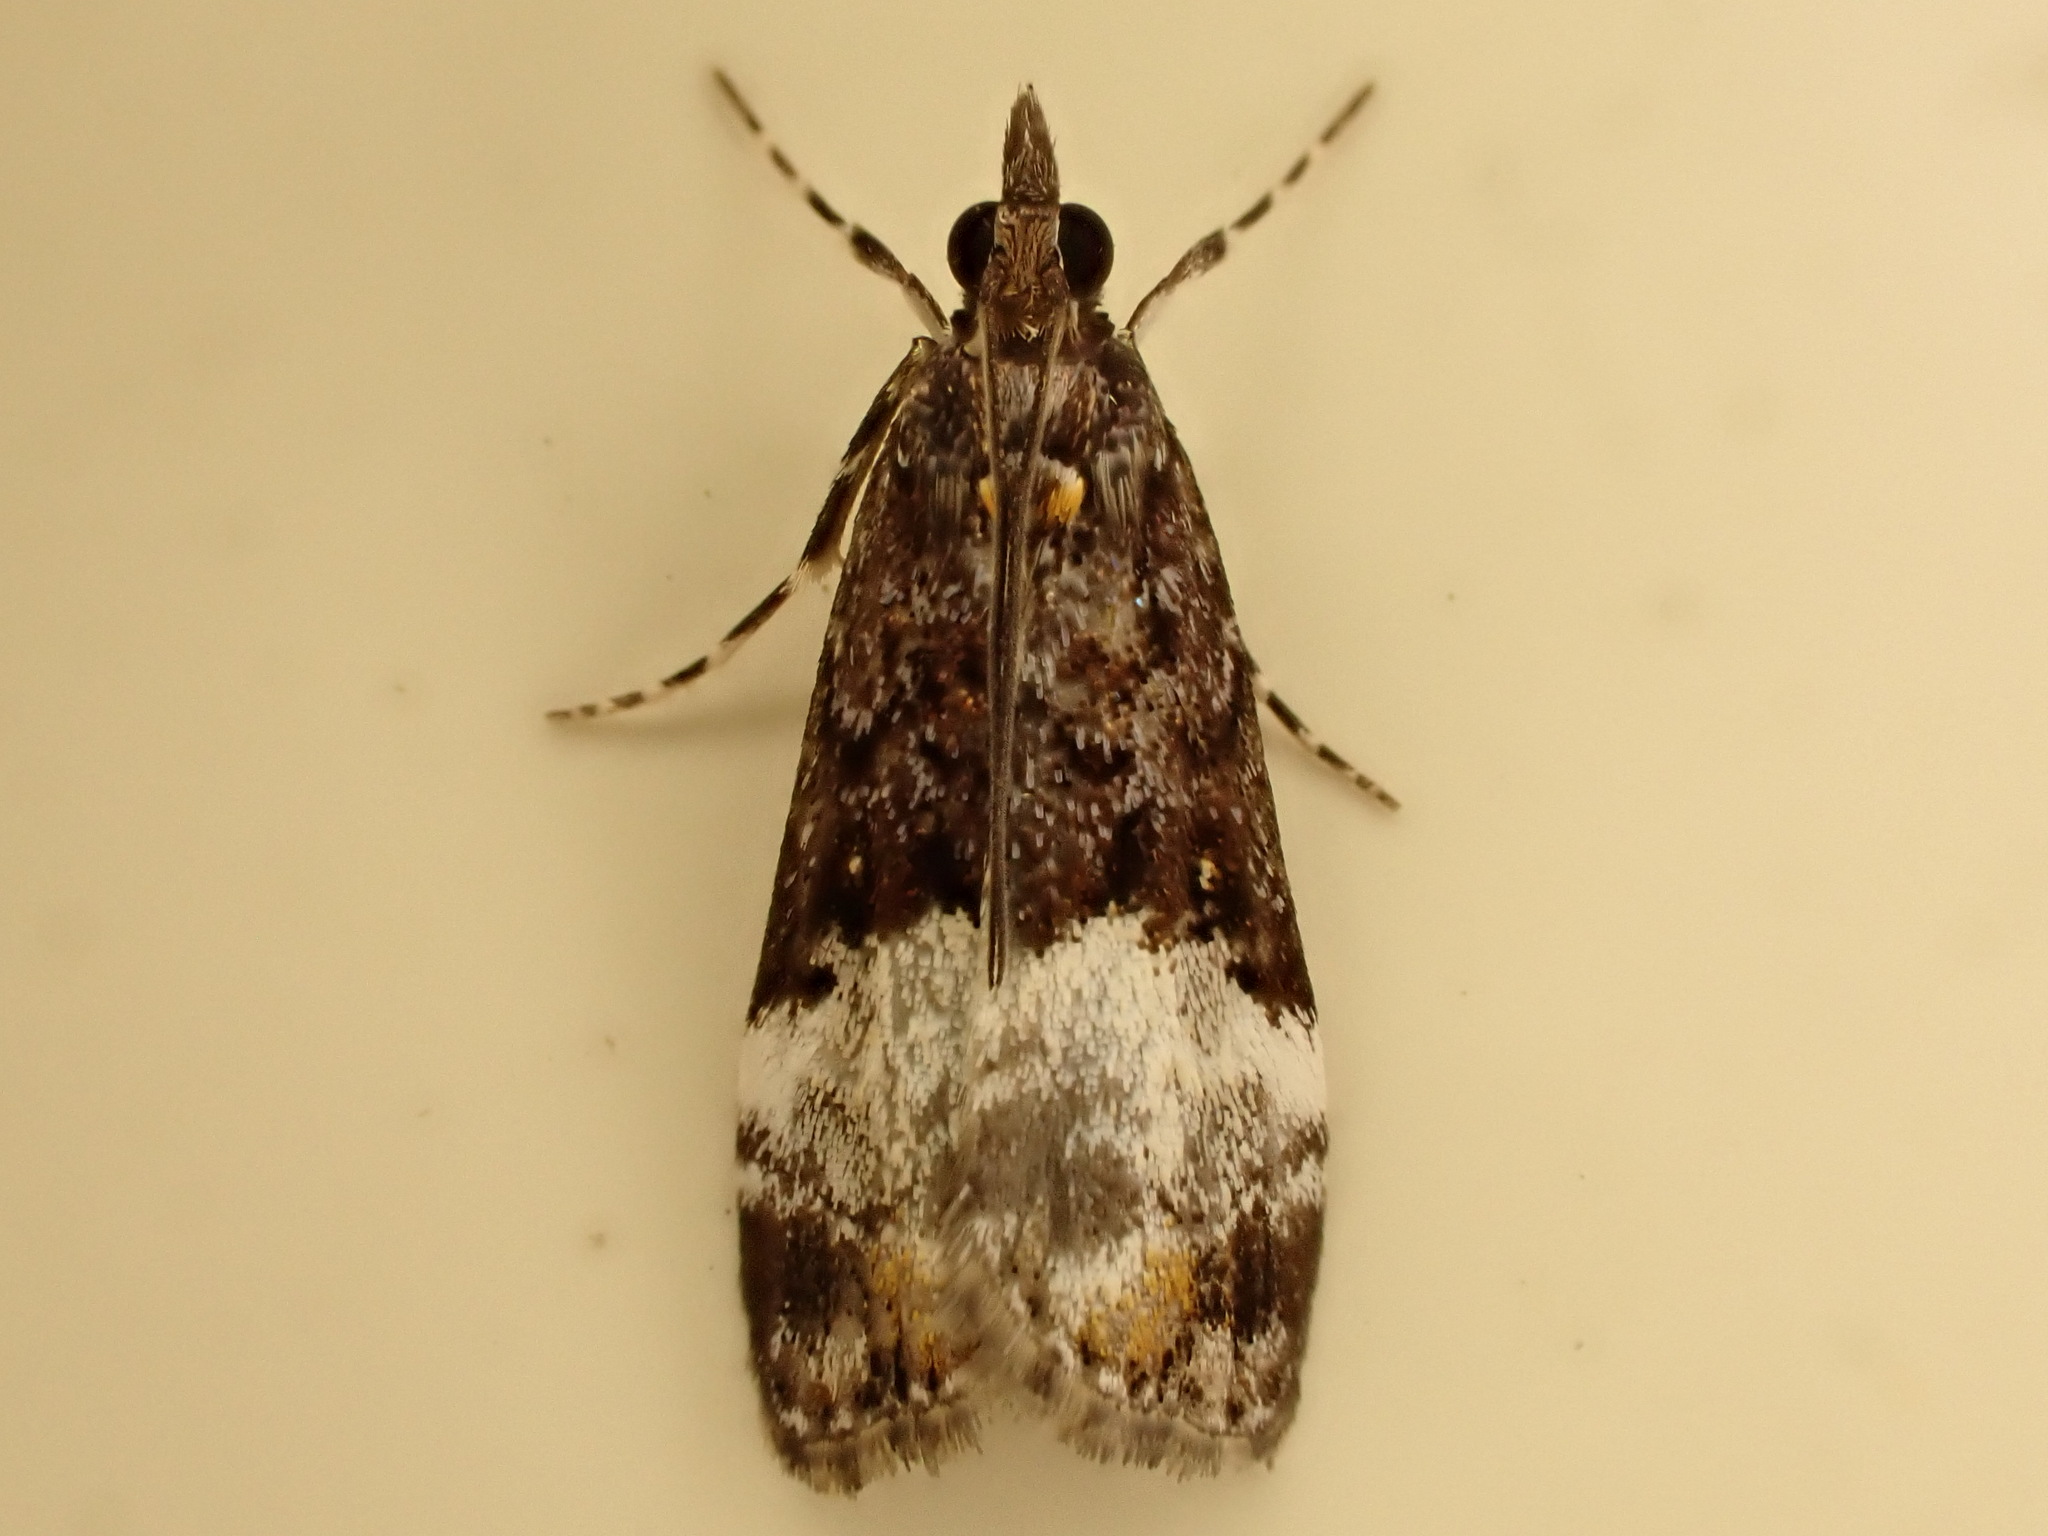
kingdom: Animalia
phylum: Arthropoda
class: Insecta
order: Lepidoptera
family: Crambidae
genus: Scoparia
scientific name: Scoparia minusculalis
